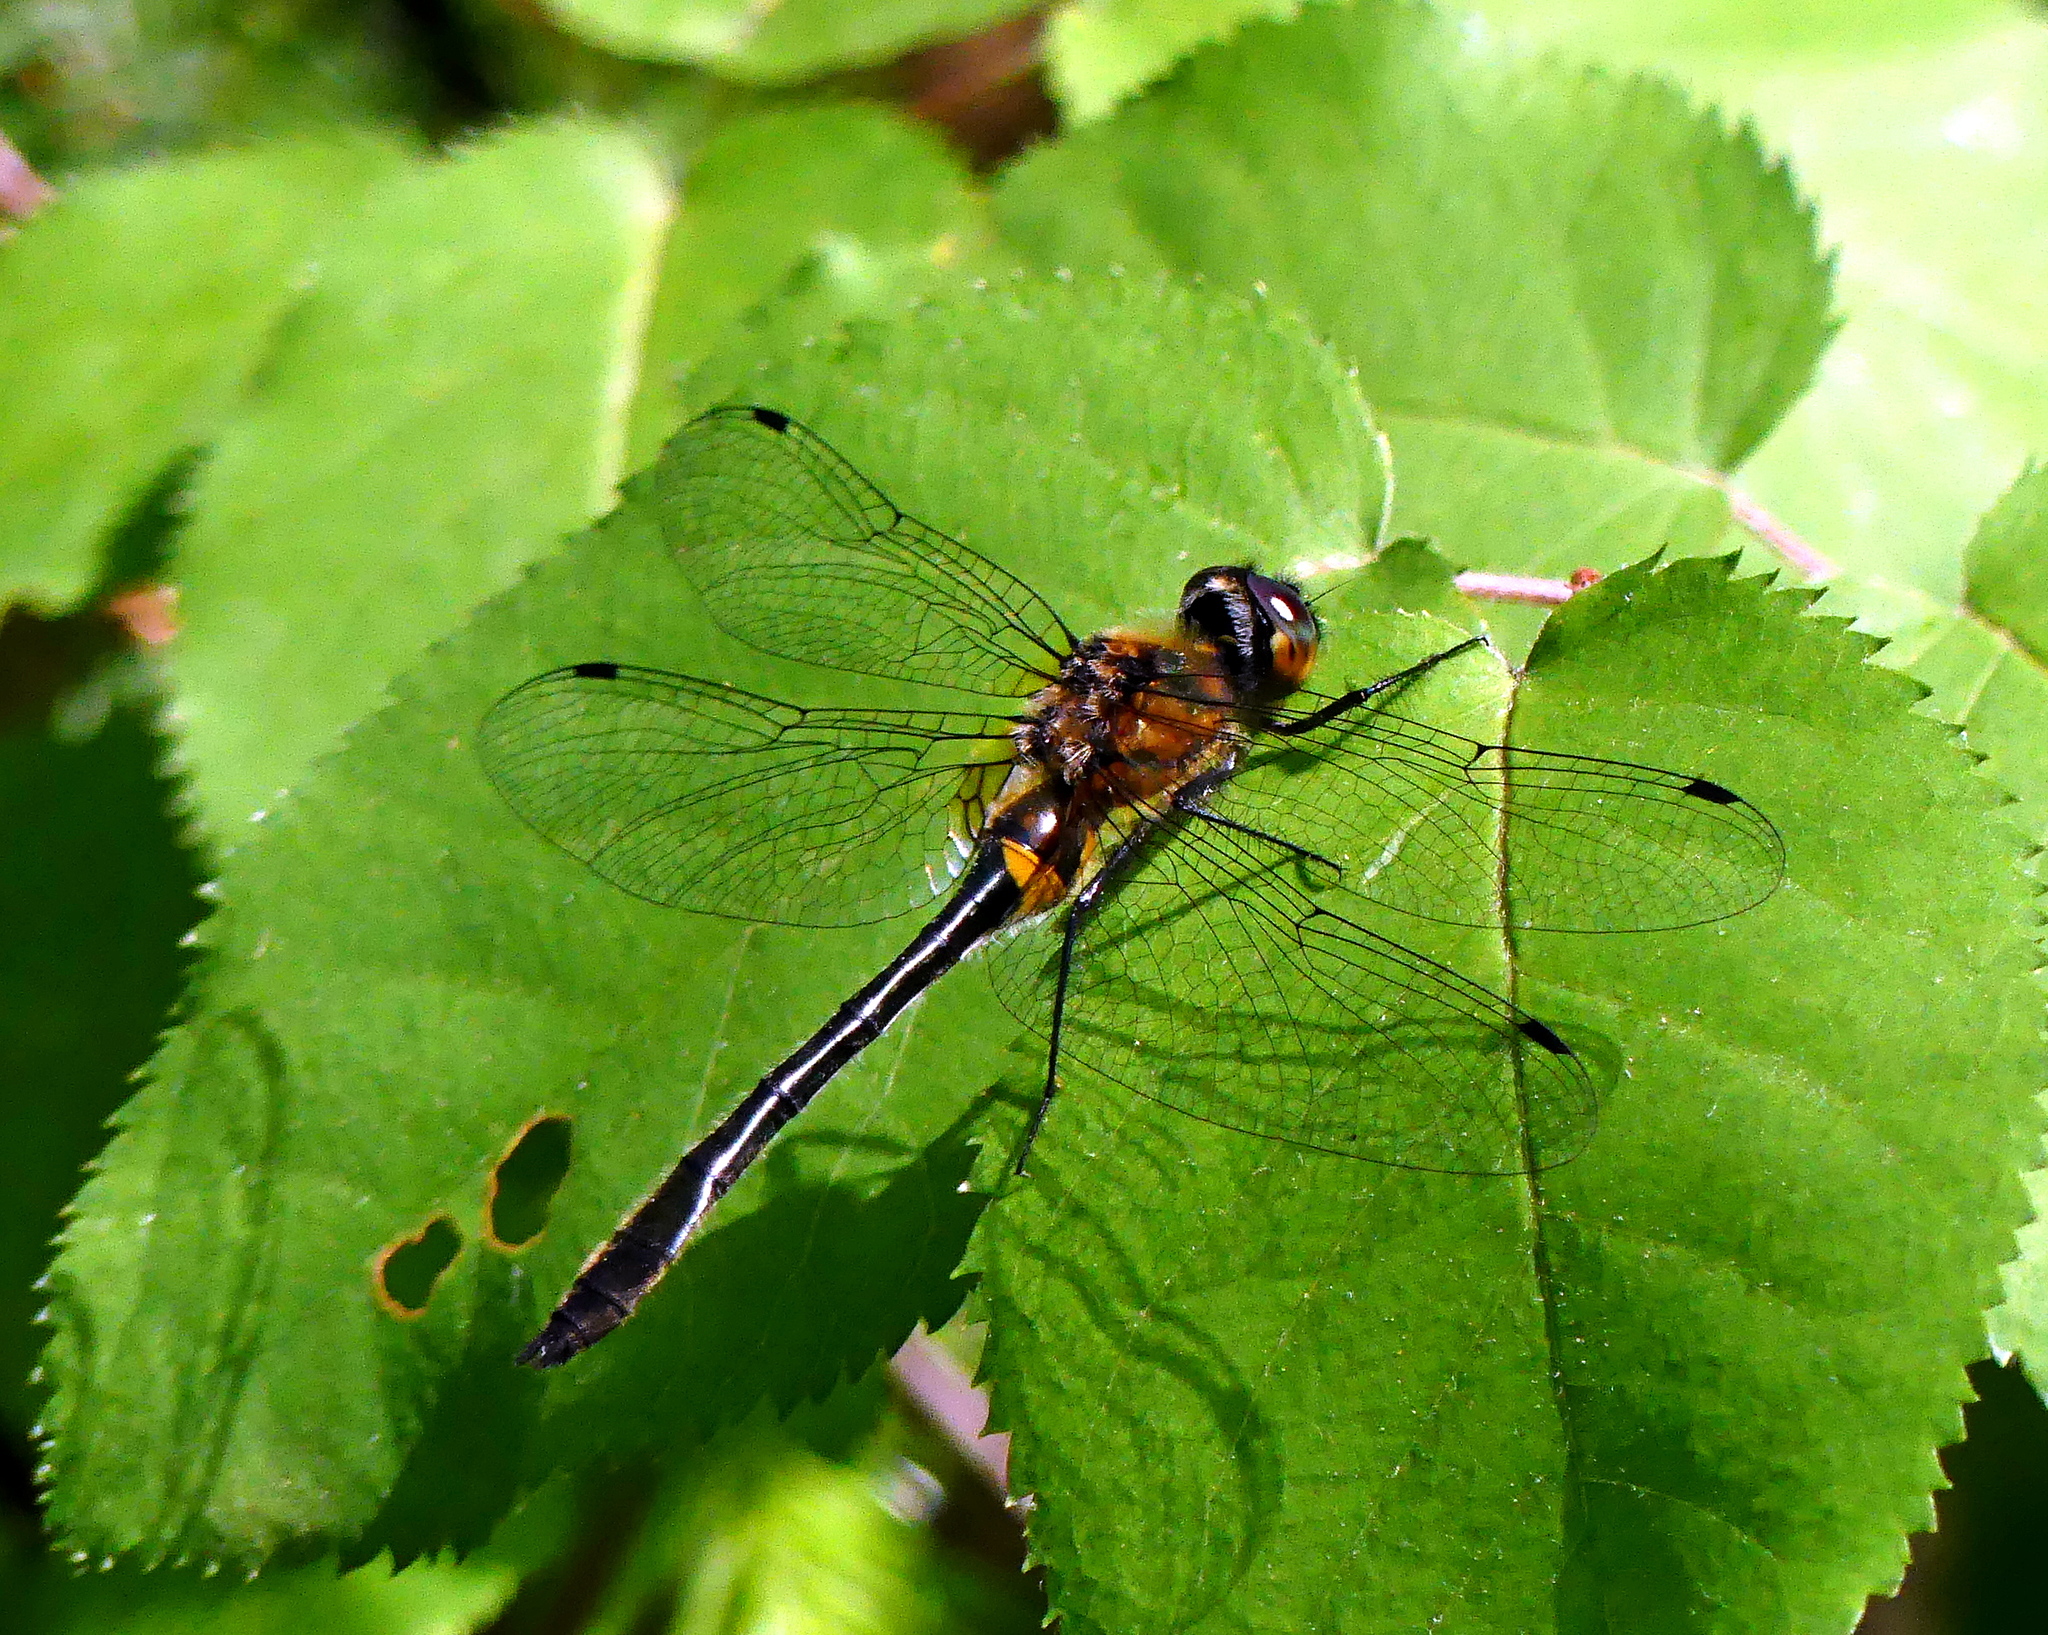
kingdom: Animalia
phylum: Arthropoda
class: Insecta
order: Odonata
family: Corduliidae
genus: Dorocordulia
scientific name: Dorocordulia libera
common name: Racket-tailed emerald
